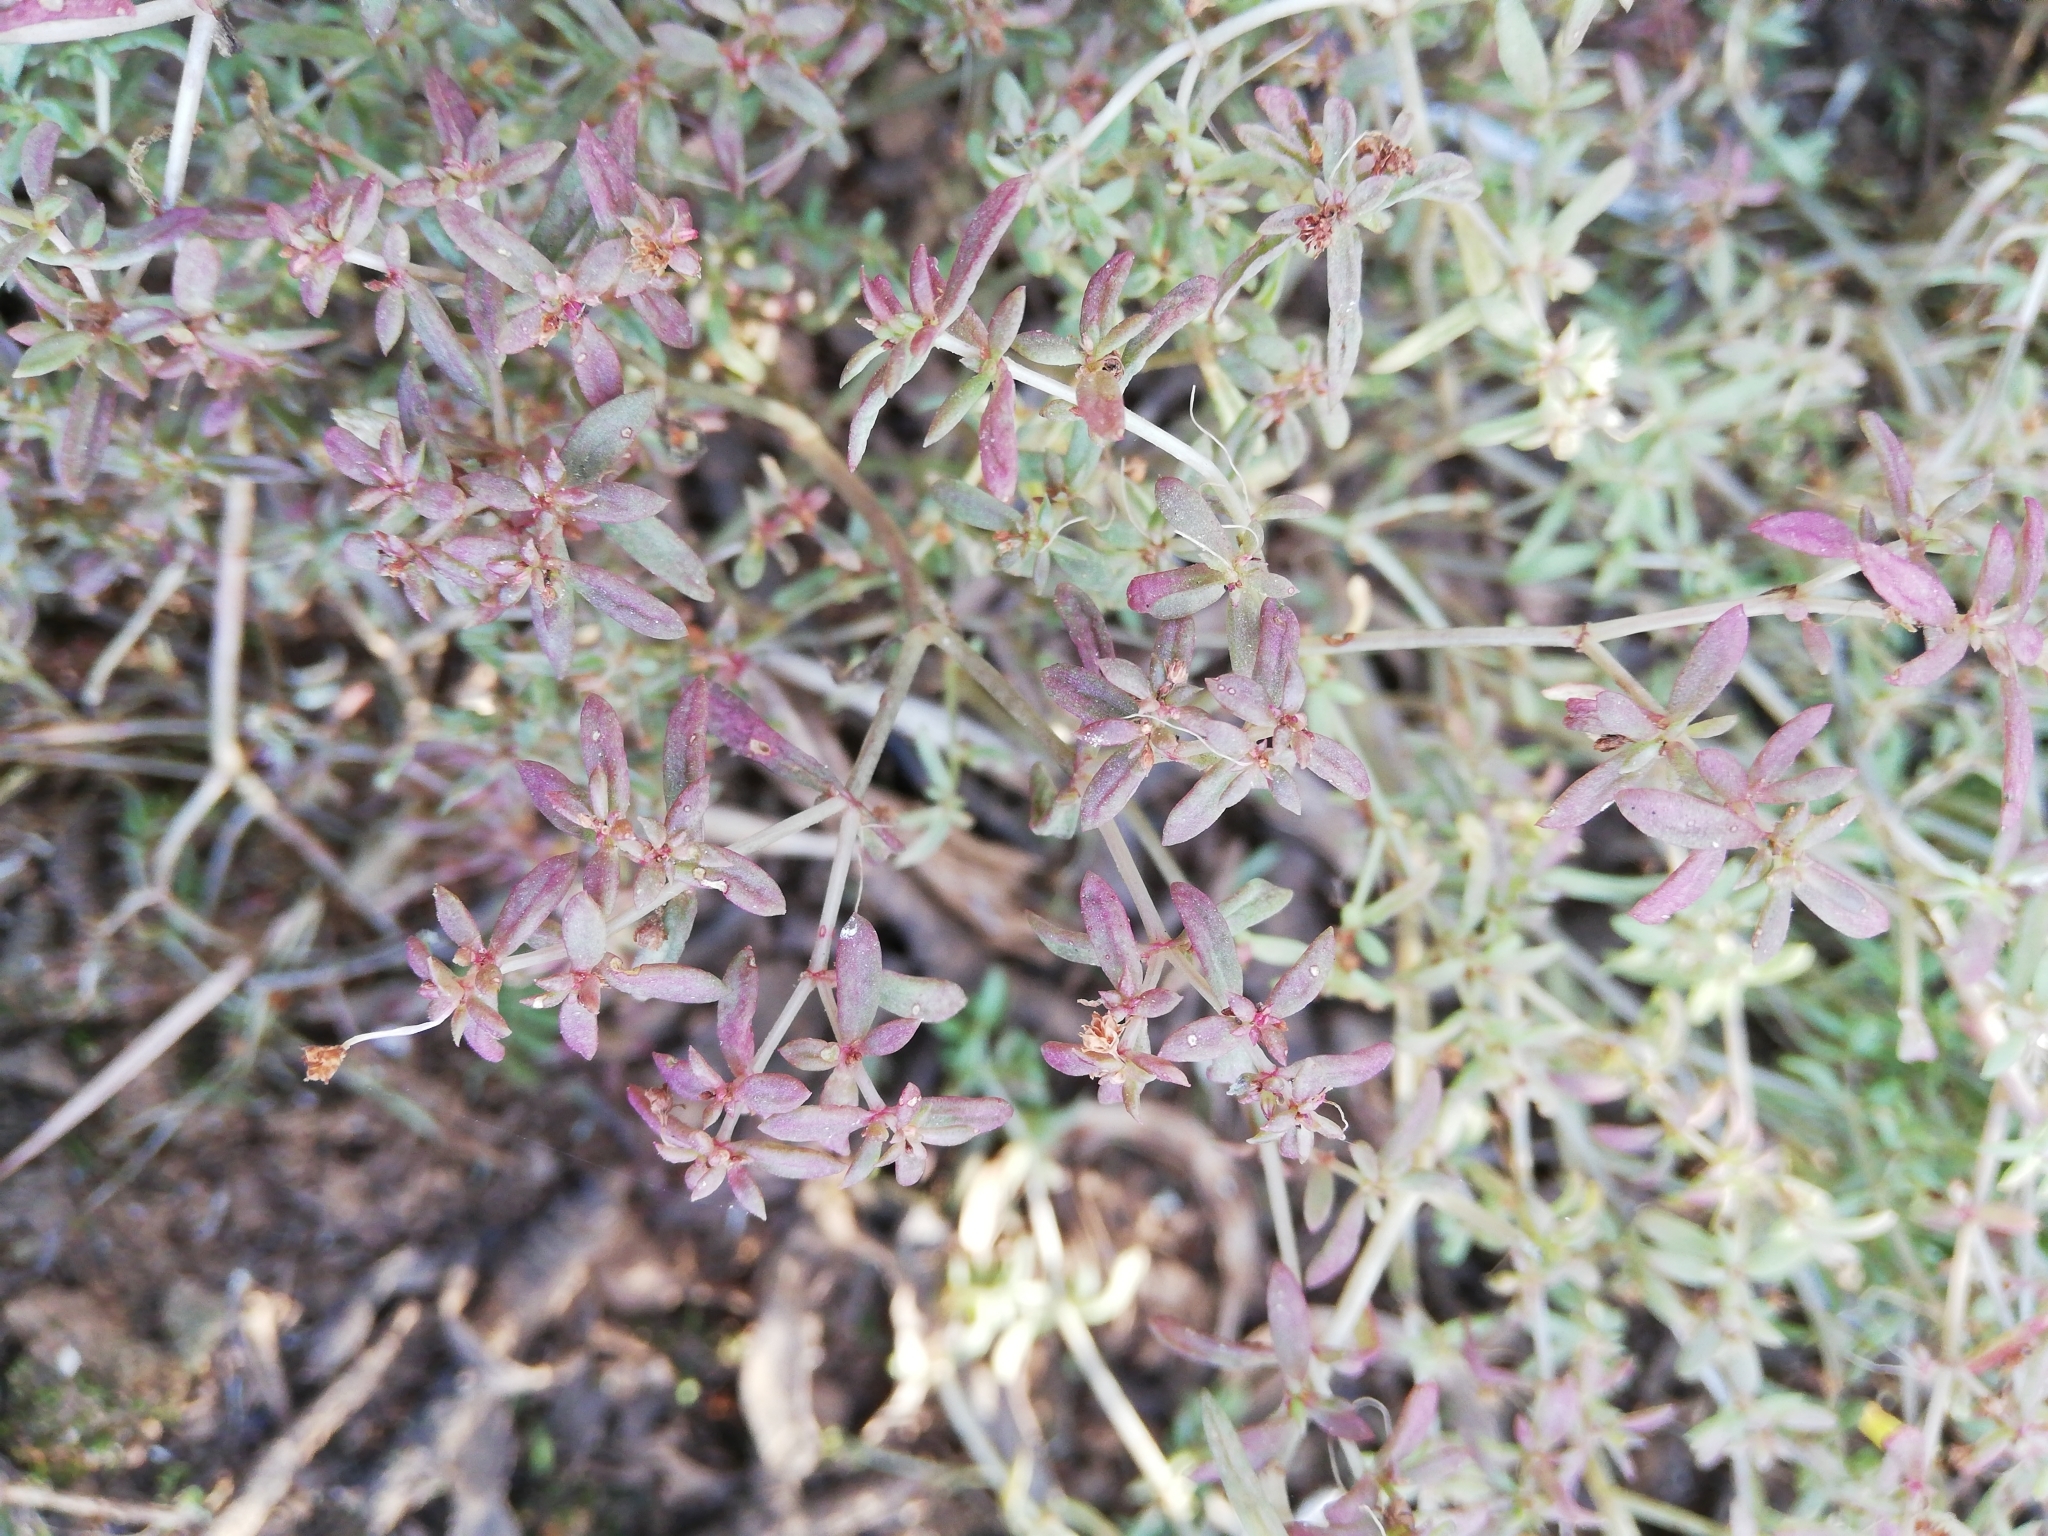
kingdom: Plantae
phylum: Tracheophyta
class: Magnoliopsida
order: Saxifragales
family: Crassulaceae
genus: Crassula
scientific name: Crassula expansa
